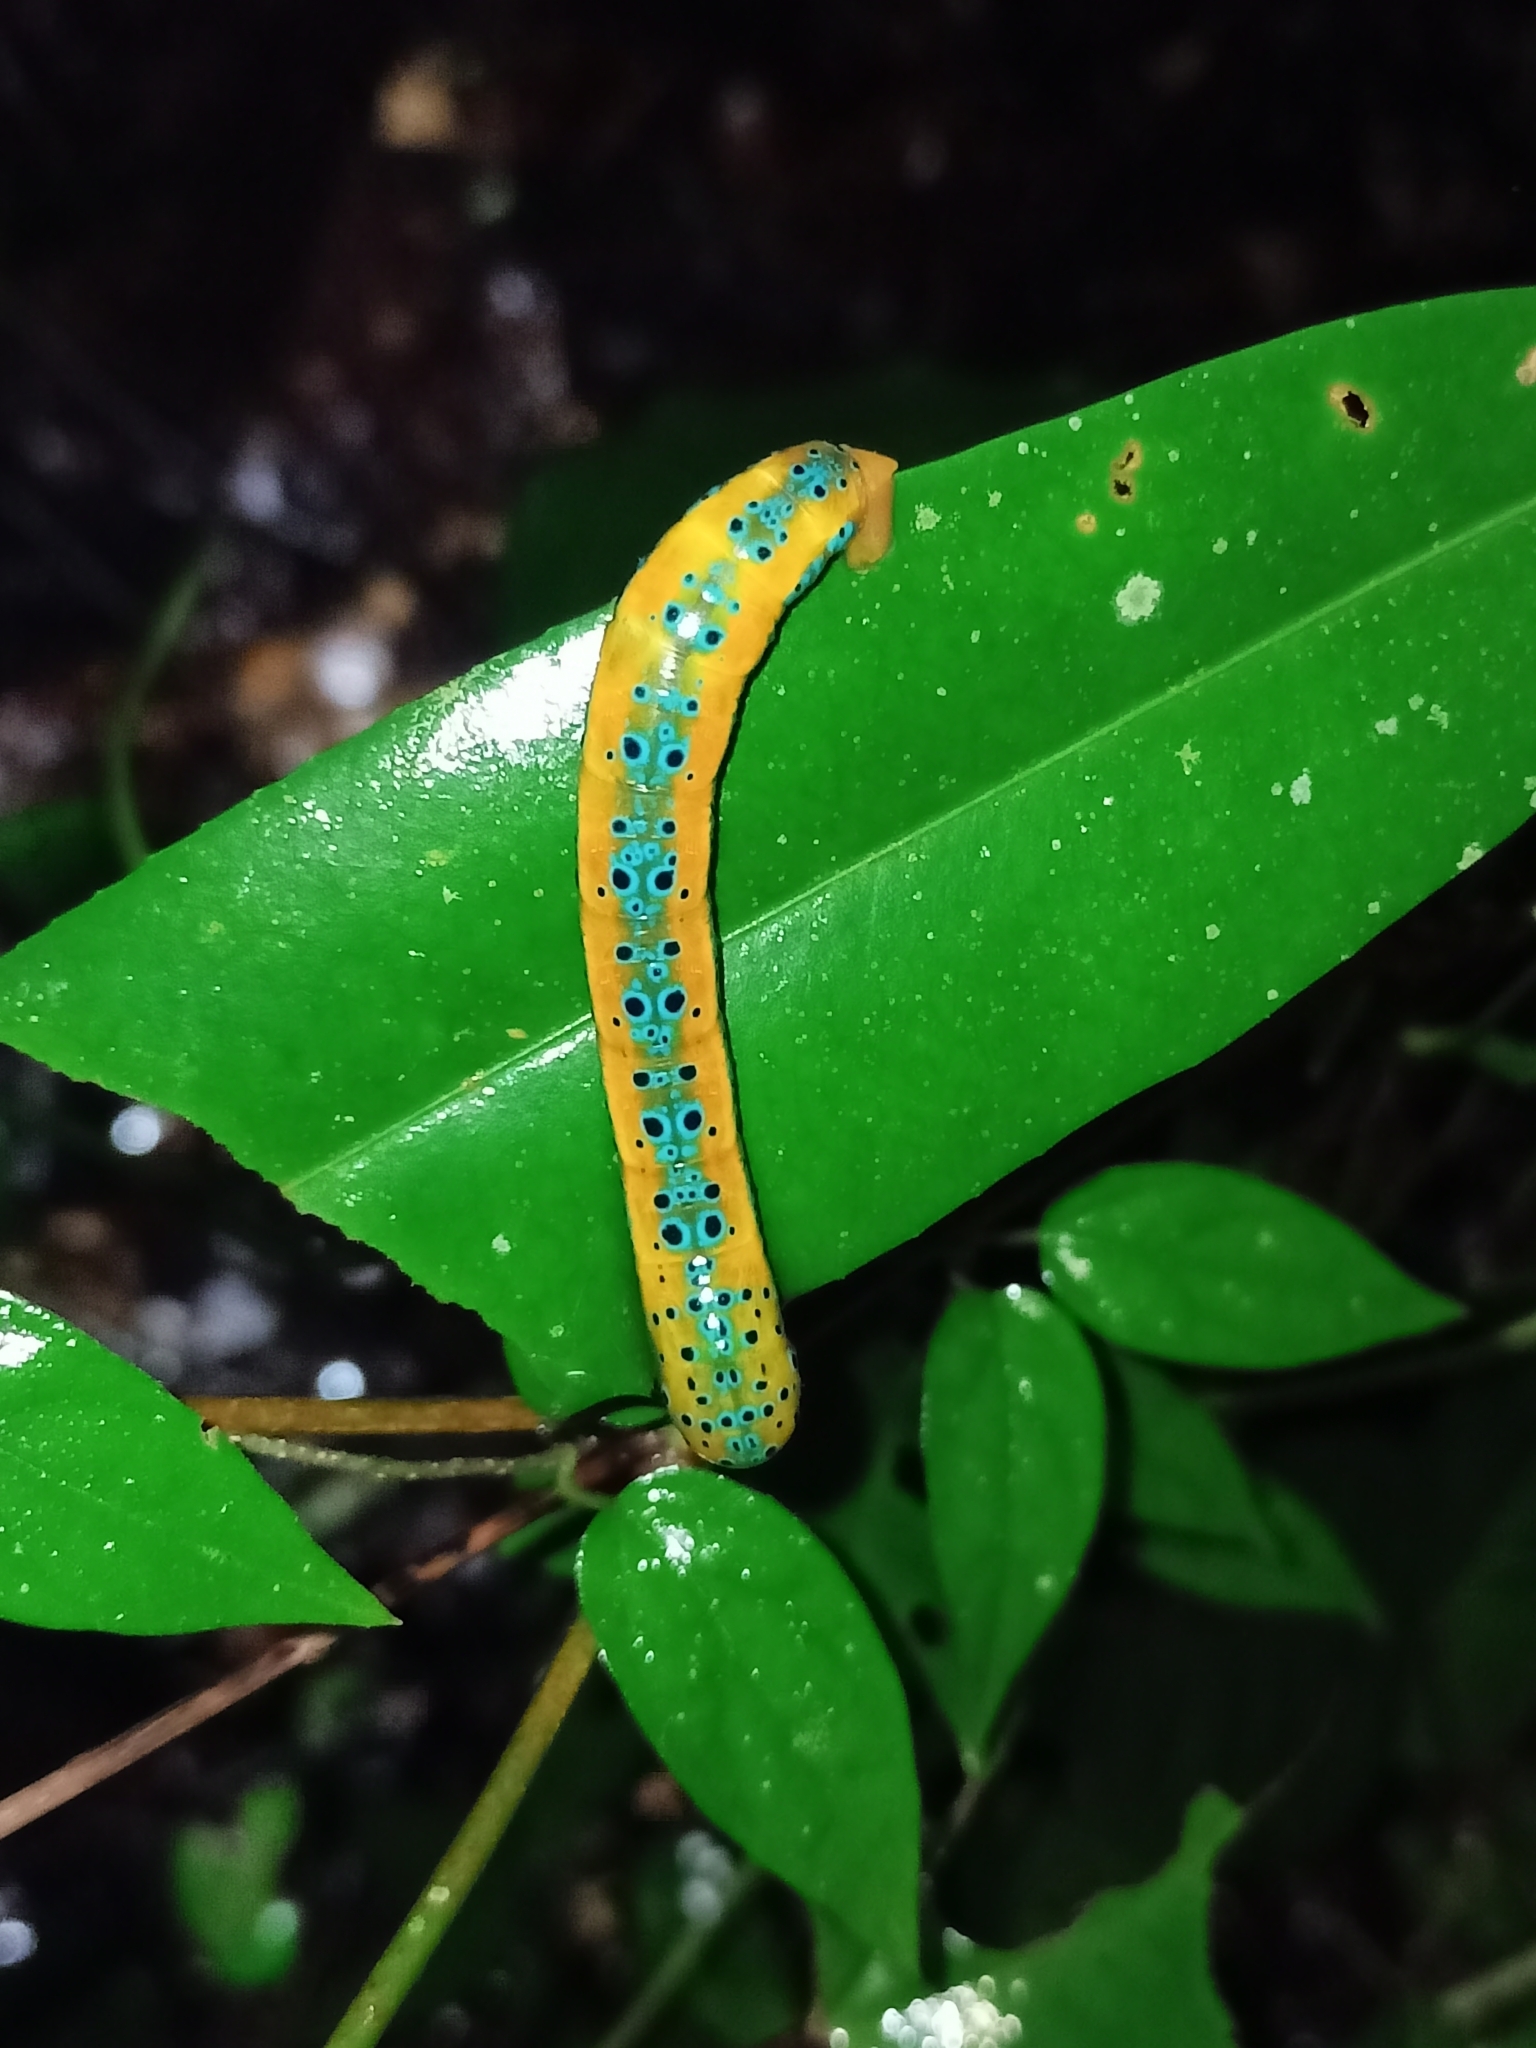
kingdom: Animalia
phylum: Arthropoda
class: Insecta
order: Lepidoptera
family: Geometridae
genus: Dysphania
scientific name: Dysphania nelera
